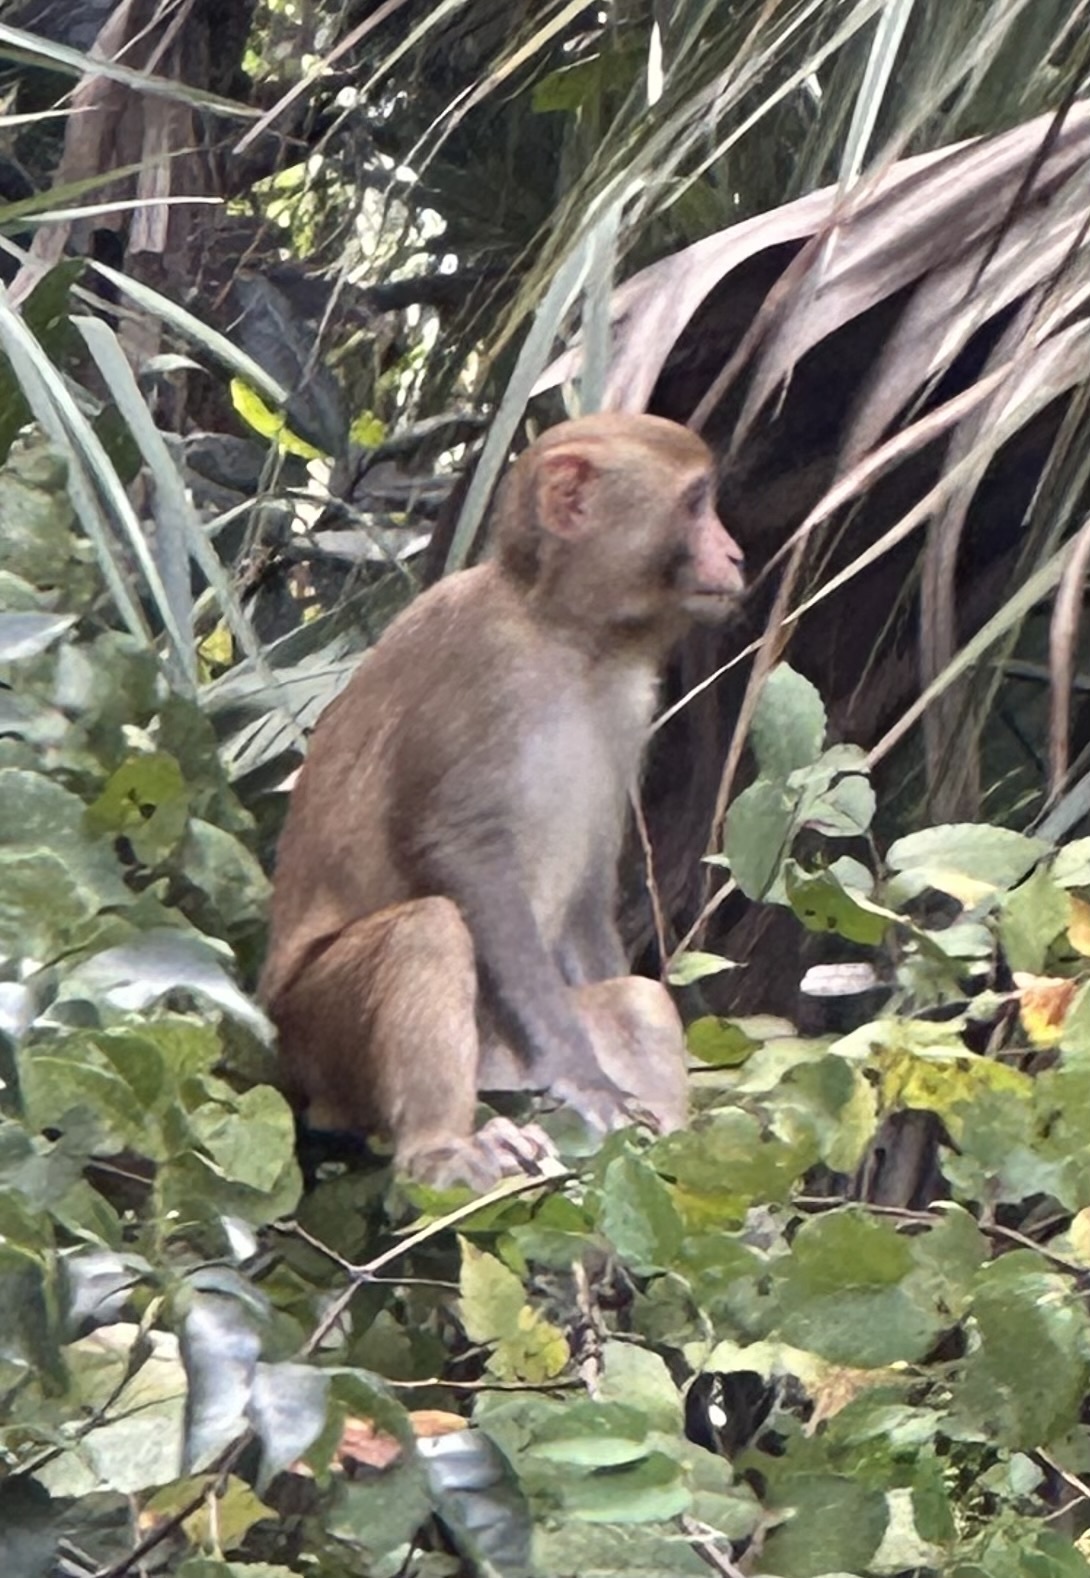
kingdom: Animalia
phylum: Chordata
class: Mammalia
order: Primates
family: Cercopithecidae
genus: Macaca
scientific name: Macaca mulatta
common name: Rhesus monkey
